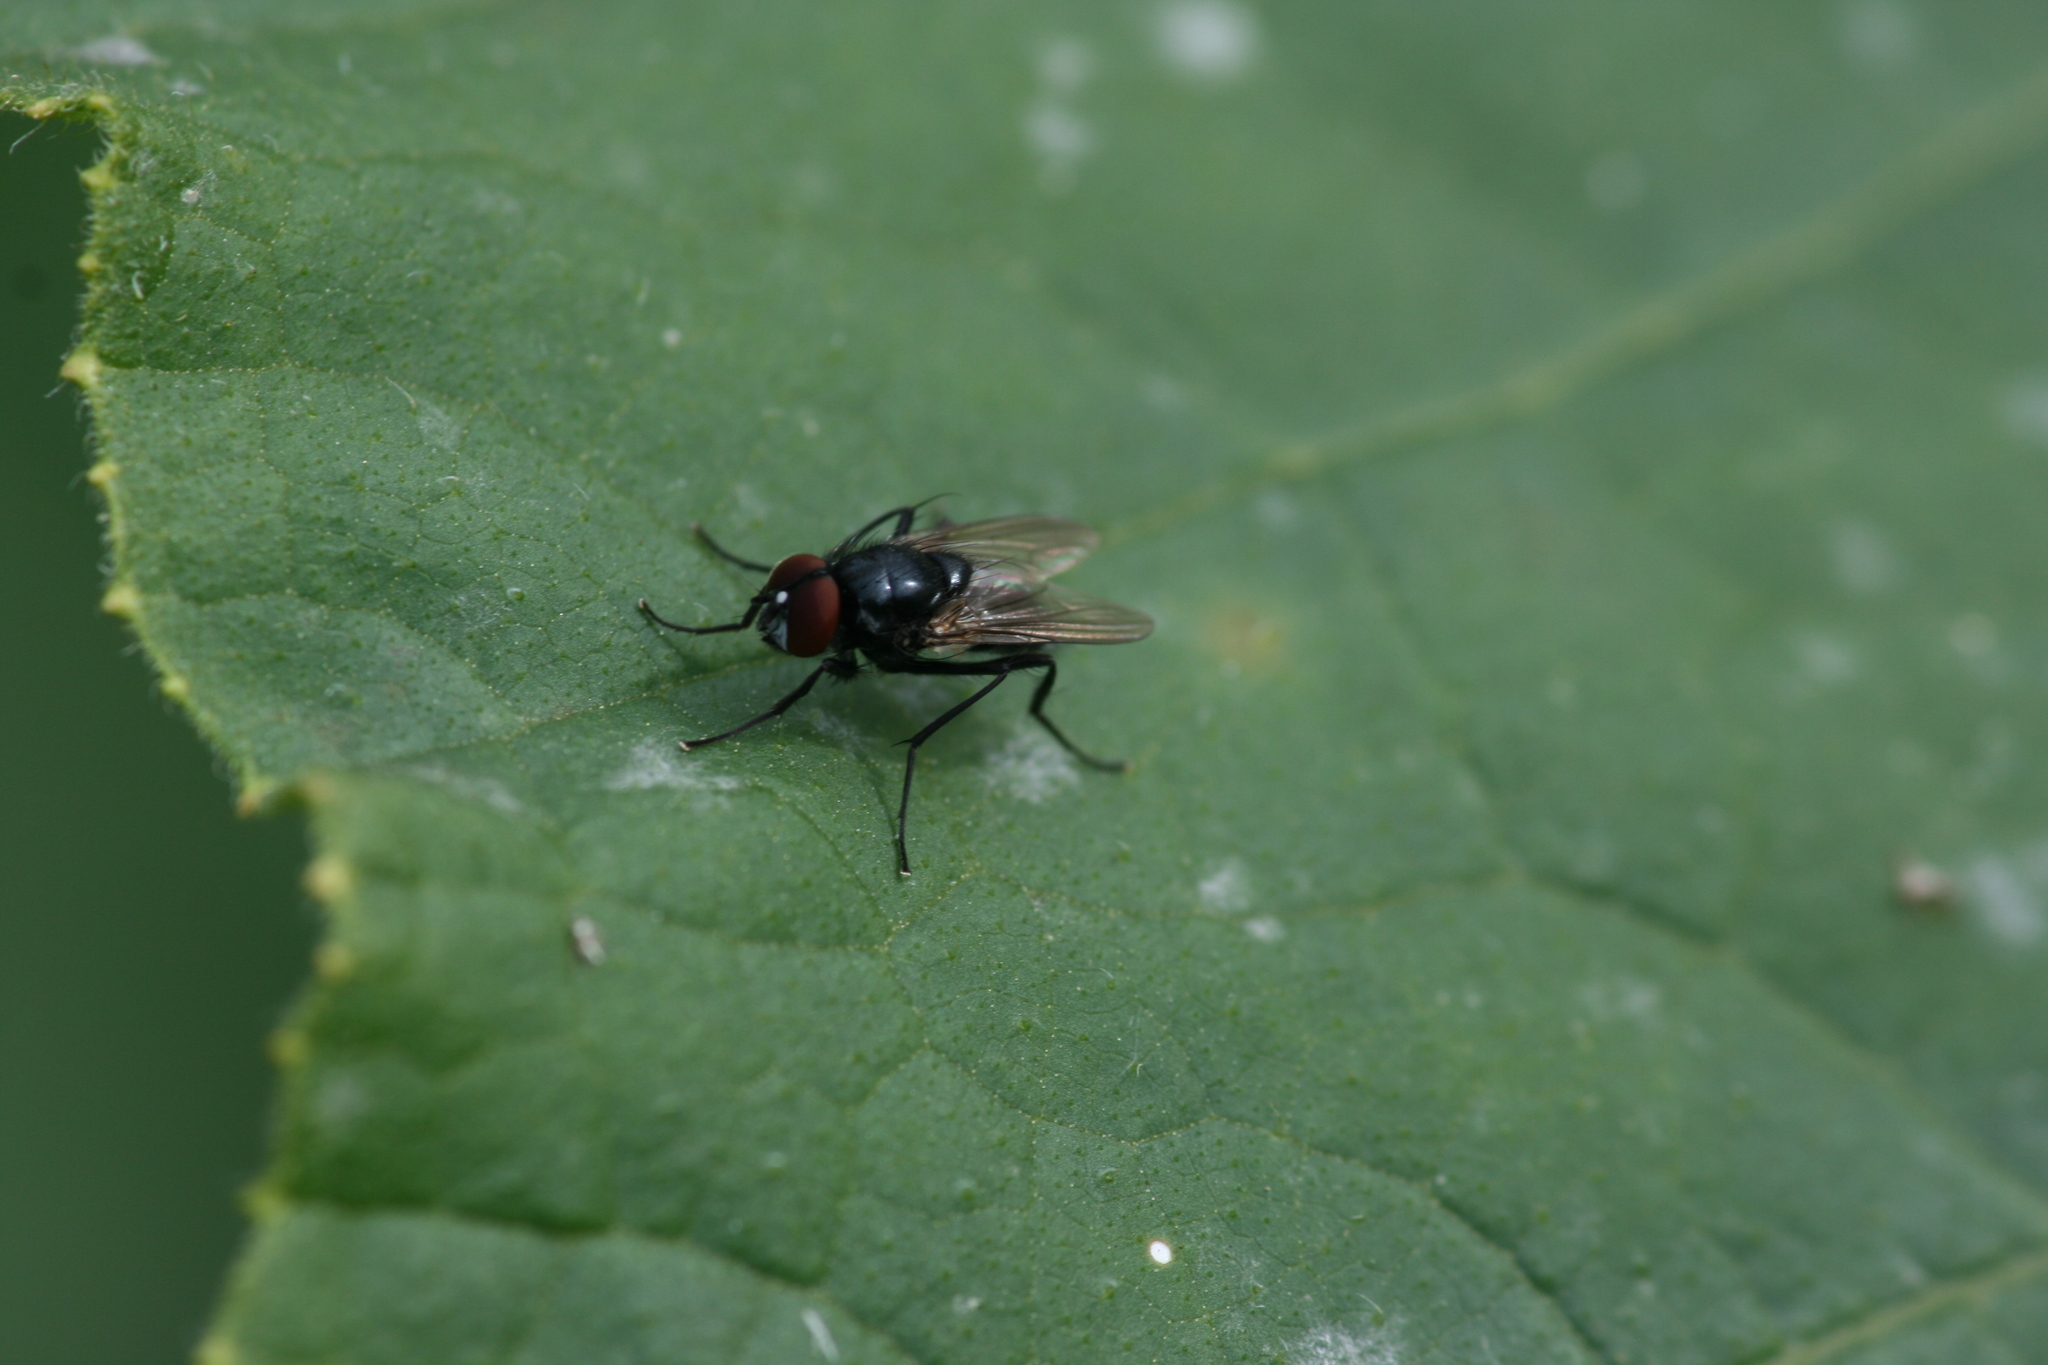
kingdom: Animalia
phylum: Arthropoda
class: Insecta
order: Diptera
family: Muscidae
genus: Hydrotaea
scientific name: Hydrotaea diabolus
